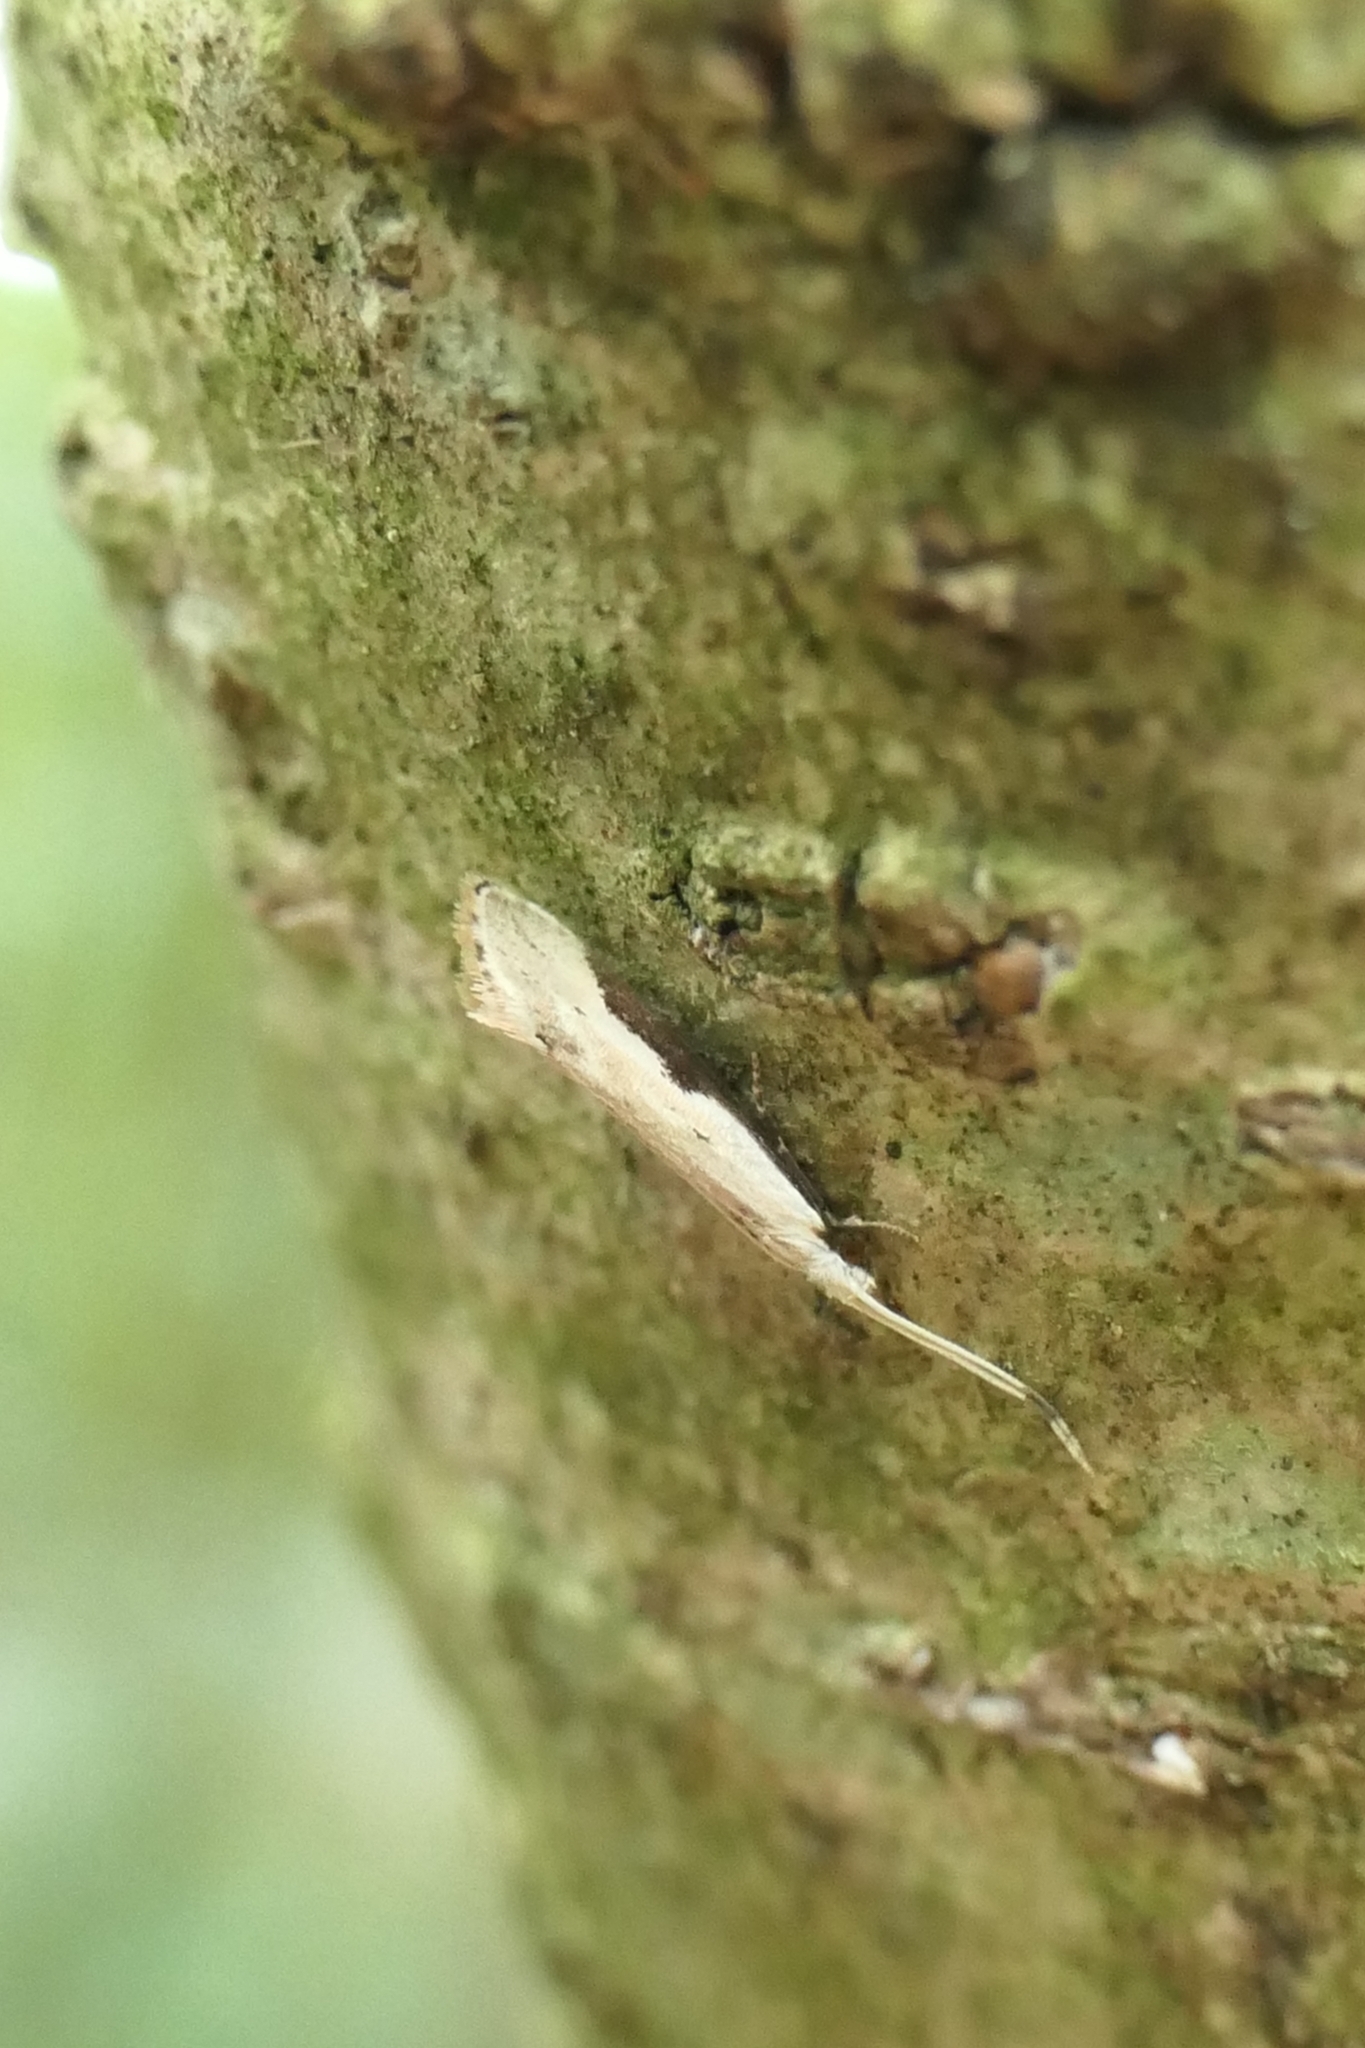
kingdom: Animalia
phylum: Arthropoda
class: Insecta
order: Lepidoptera
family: Tineidae
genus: Sagephora
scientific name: Sagephora phortegella
